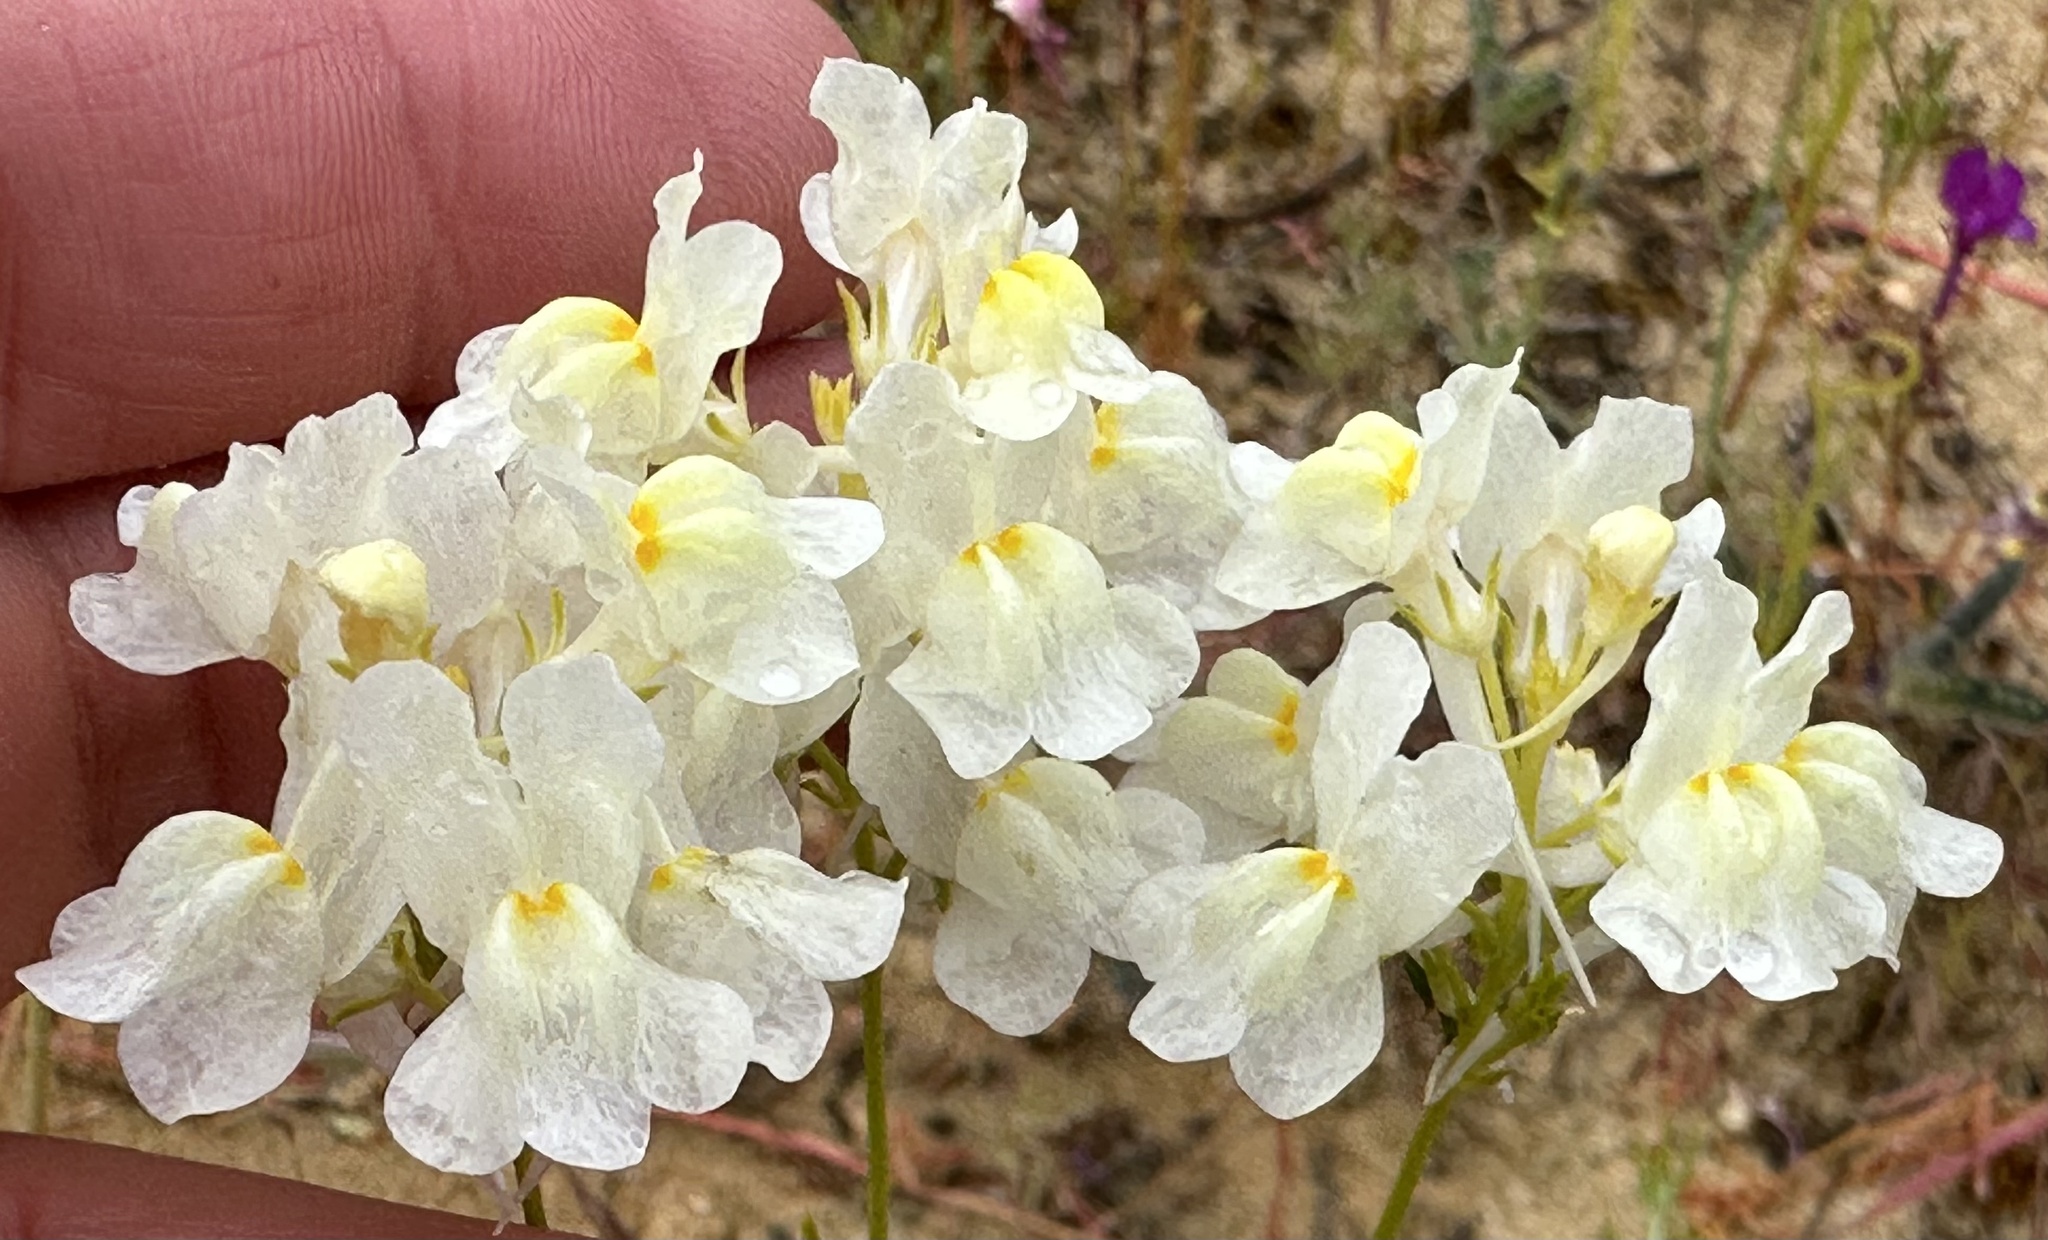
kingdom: Plantae
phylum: Tracheophyta
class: Magnoliopsida
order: Lamiales
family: Plantaginaceae
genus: Linaria
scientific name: Linaria maroccana
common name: Moroccan toadflax
